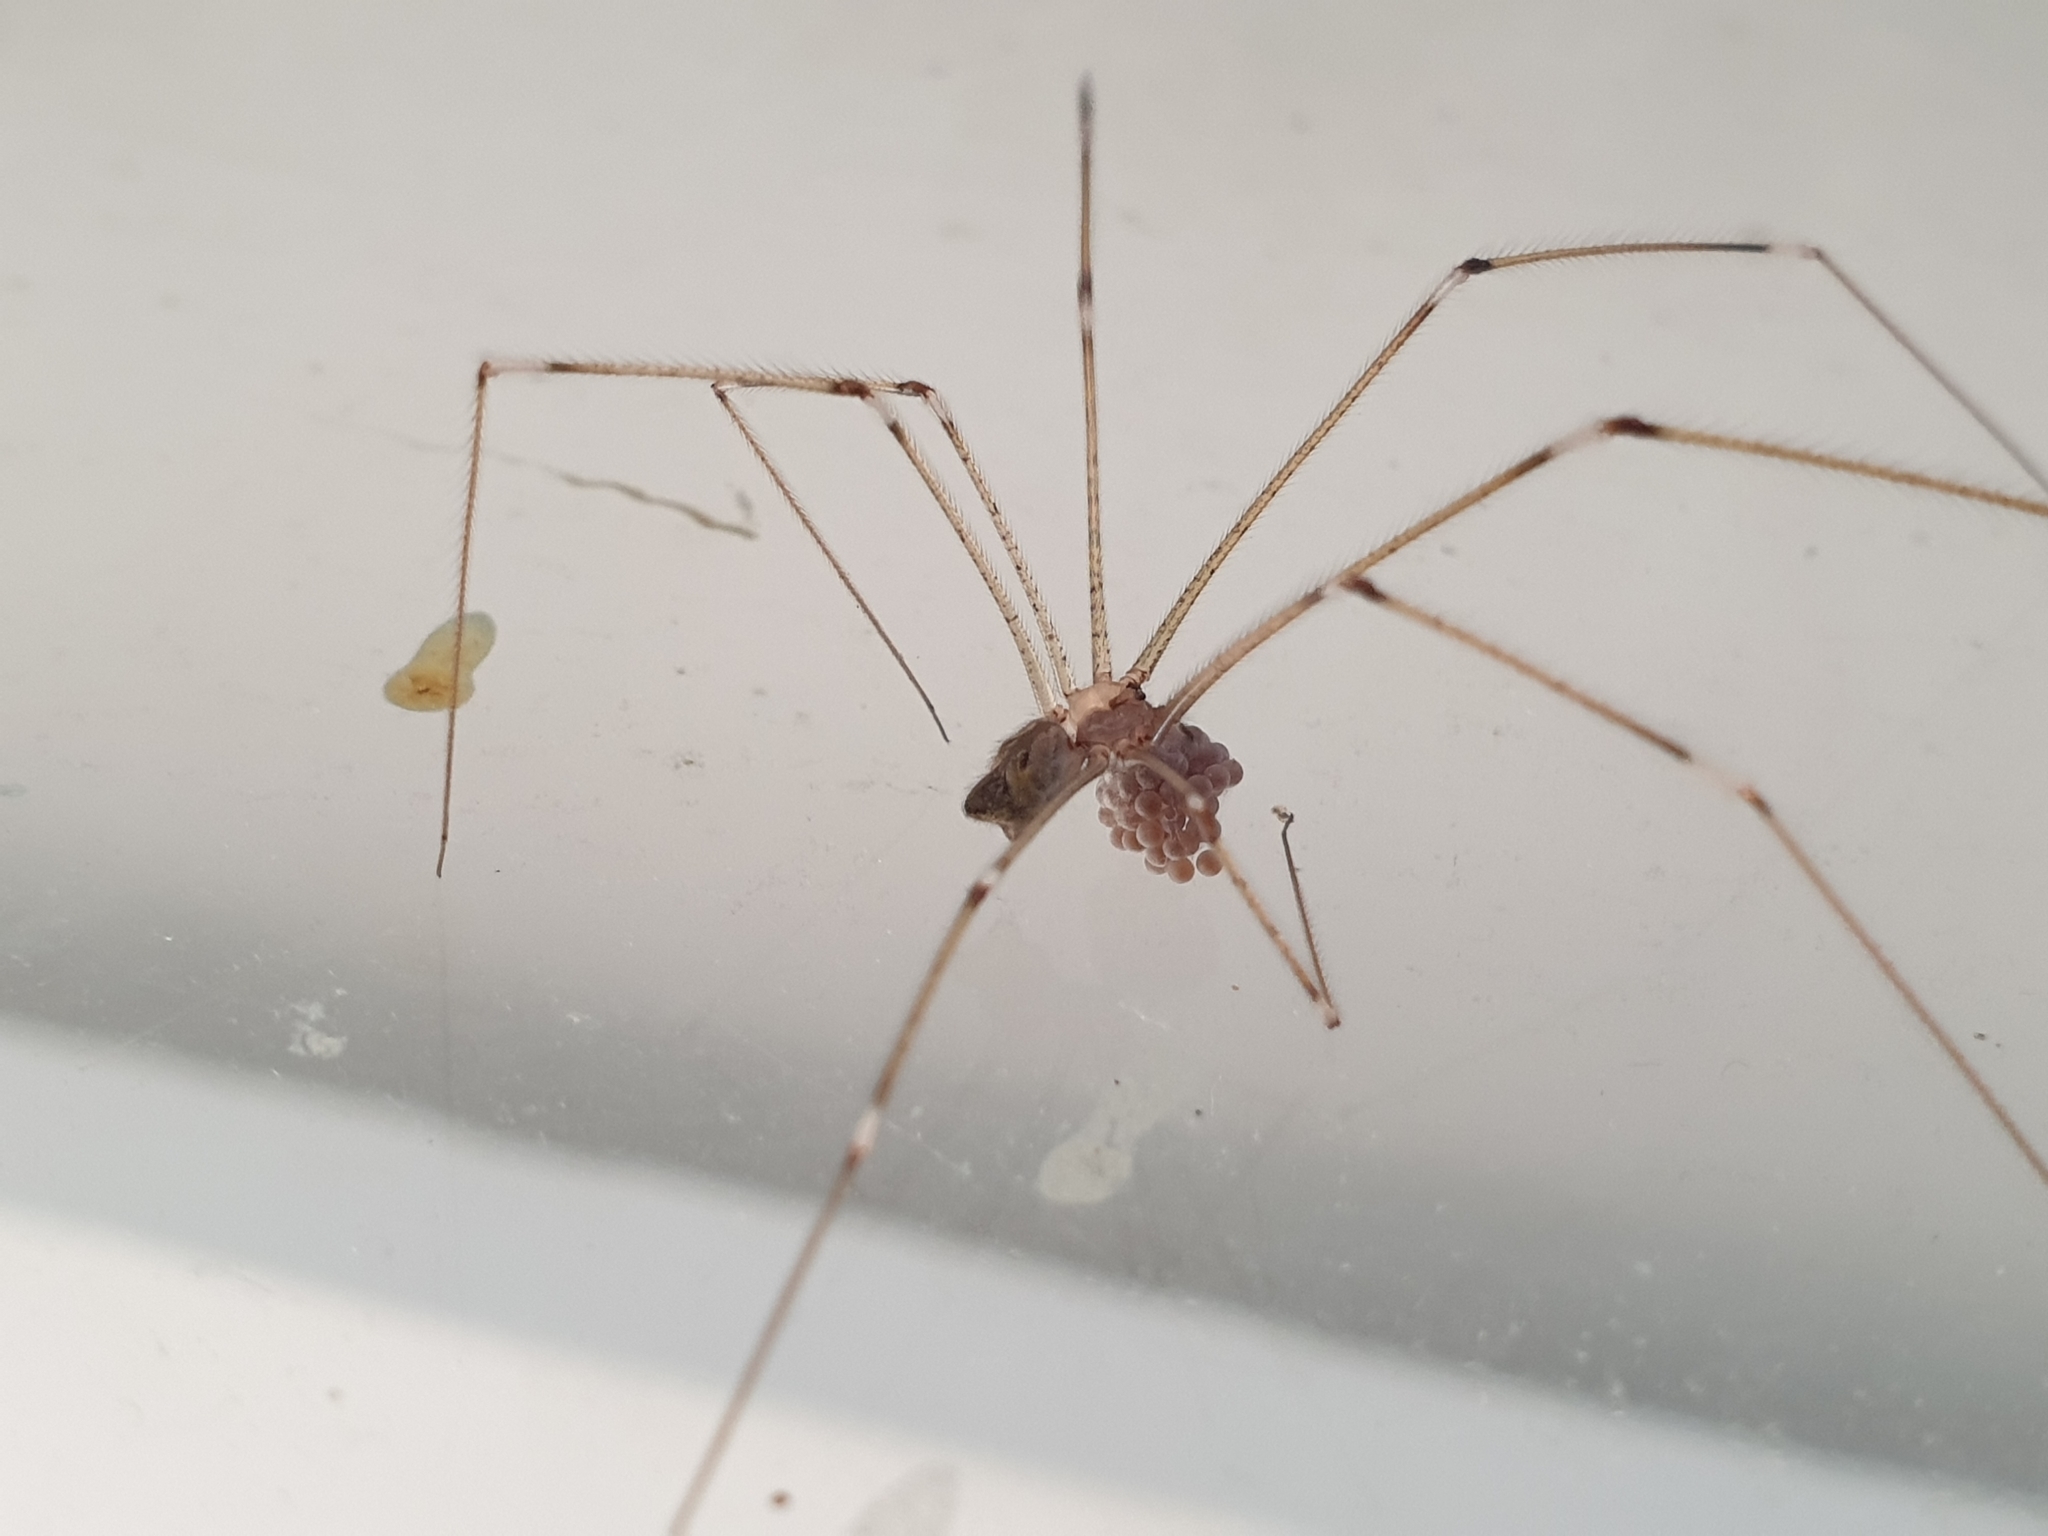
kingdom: Animalia
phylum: Arthropoda
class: Arachnida
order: Araneae
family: Pholcidae
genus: Crossopriza
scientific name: Crossopriza lyoni
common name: Cellar spiders
